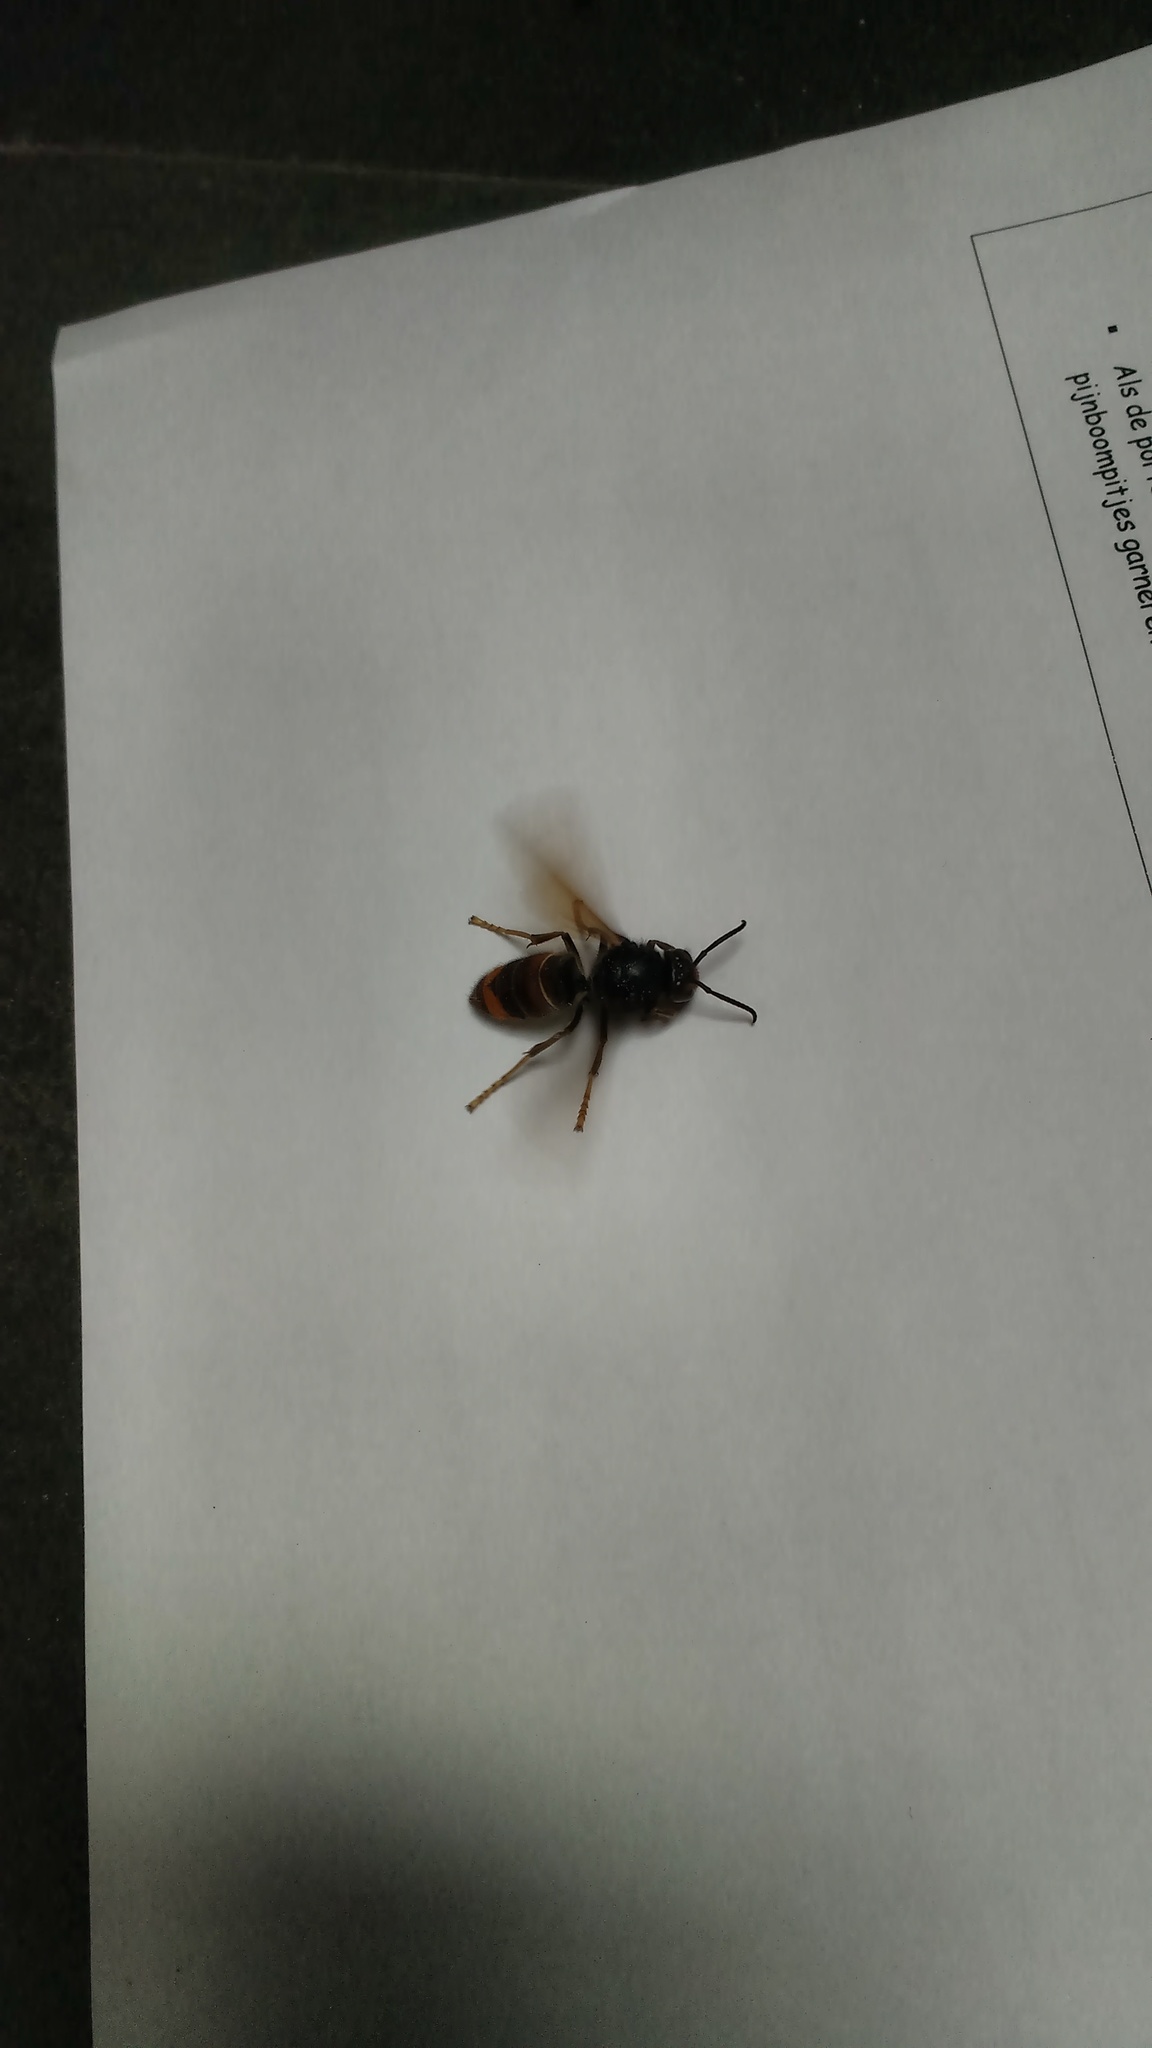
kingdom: Animalia
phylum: Arthropoda
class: Insecta
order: Hymenoptera
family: Vespidae
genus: Vespa
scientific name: Vespa velutina
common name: Asian hornet
